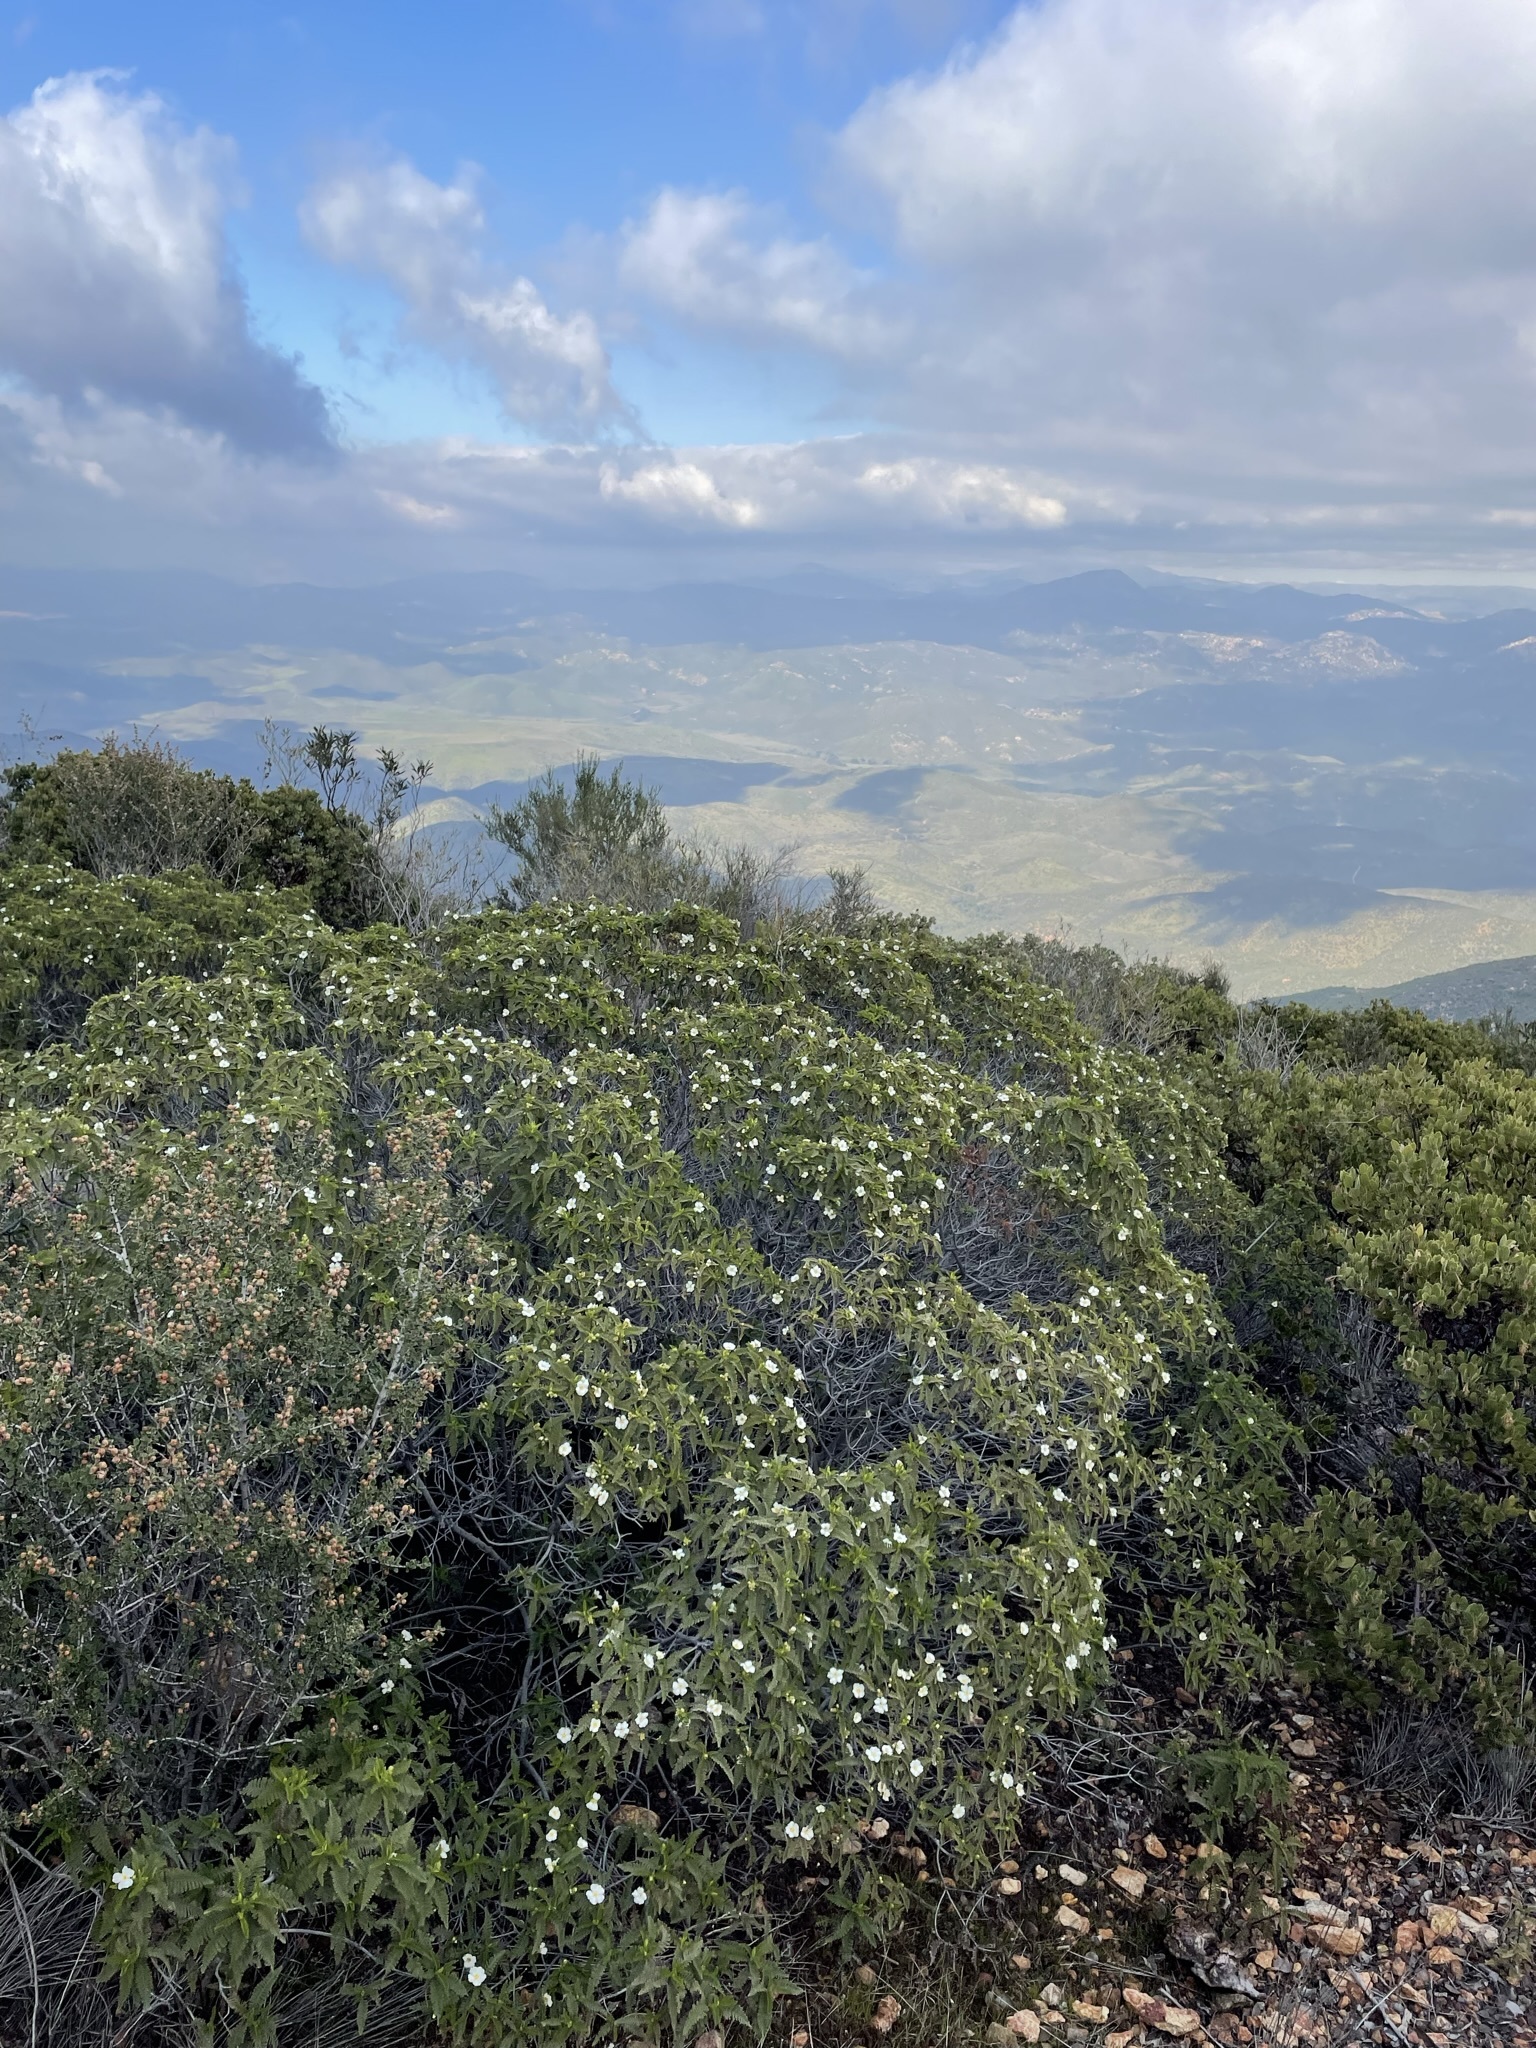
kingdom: Plantae
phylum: Tracheophyta
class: Magnoliopsida
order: Rosales
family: Rosaceae
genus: Chamaebatia
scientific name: Chamaebatia australis
